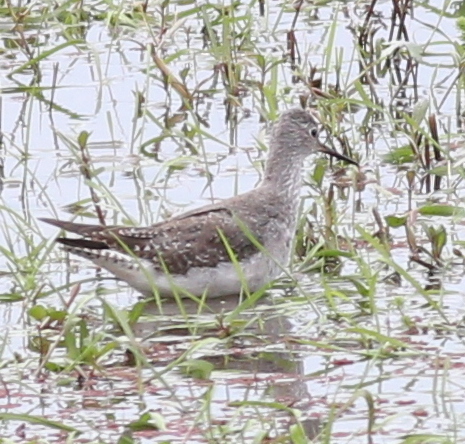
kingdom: Animalia
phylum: Chordata
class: Aves
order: Charadriiformes
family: Scolopacidae
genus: Tringa
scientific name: Tringa flavipes
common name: Lesser yellowlegs
